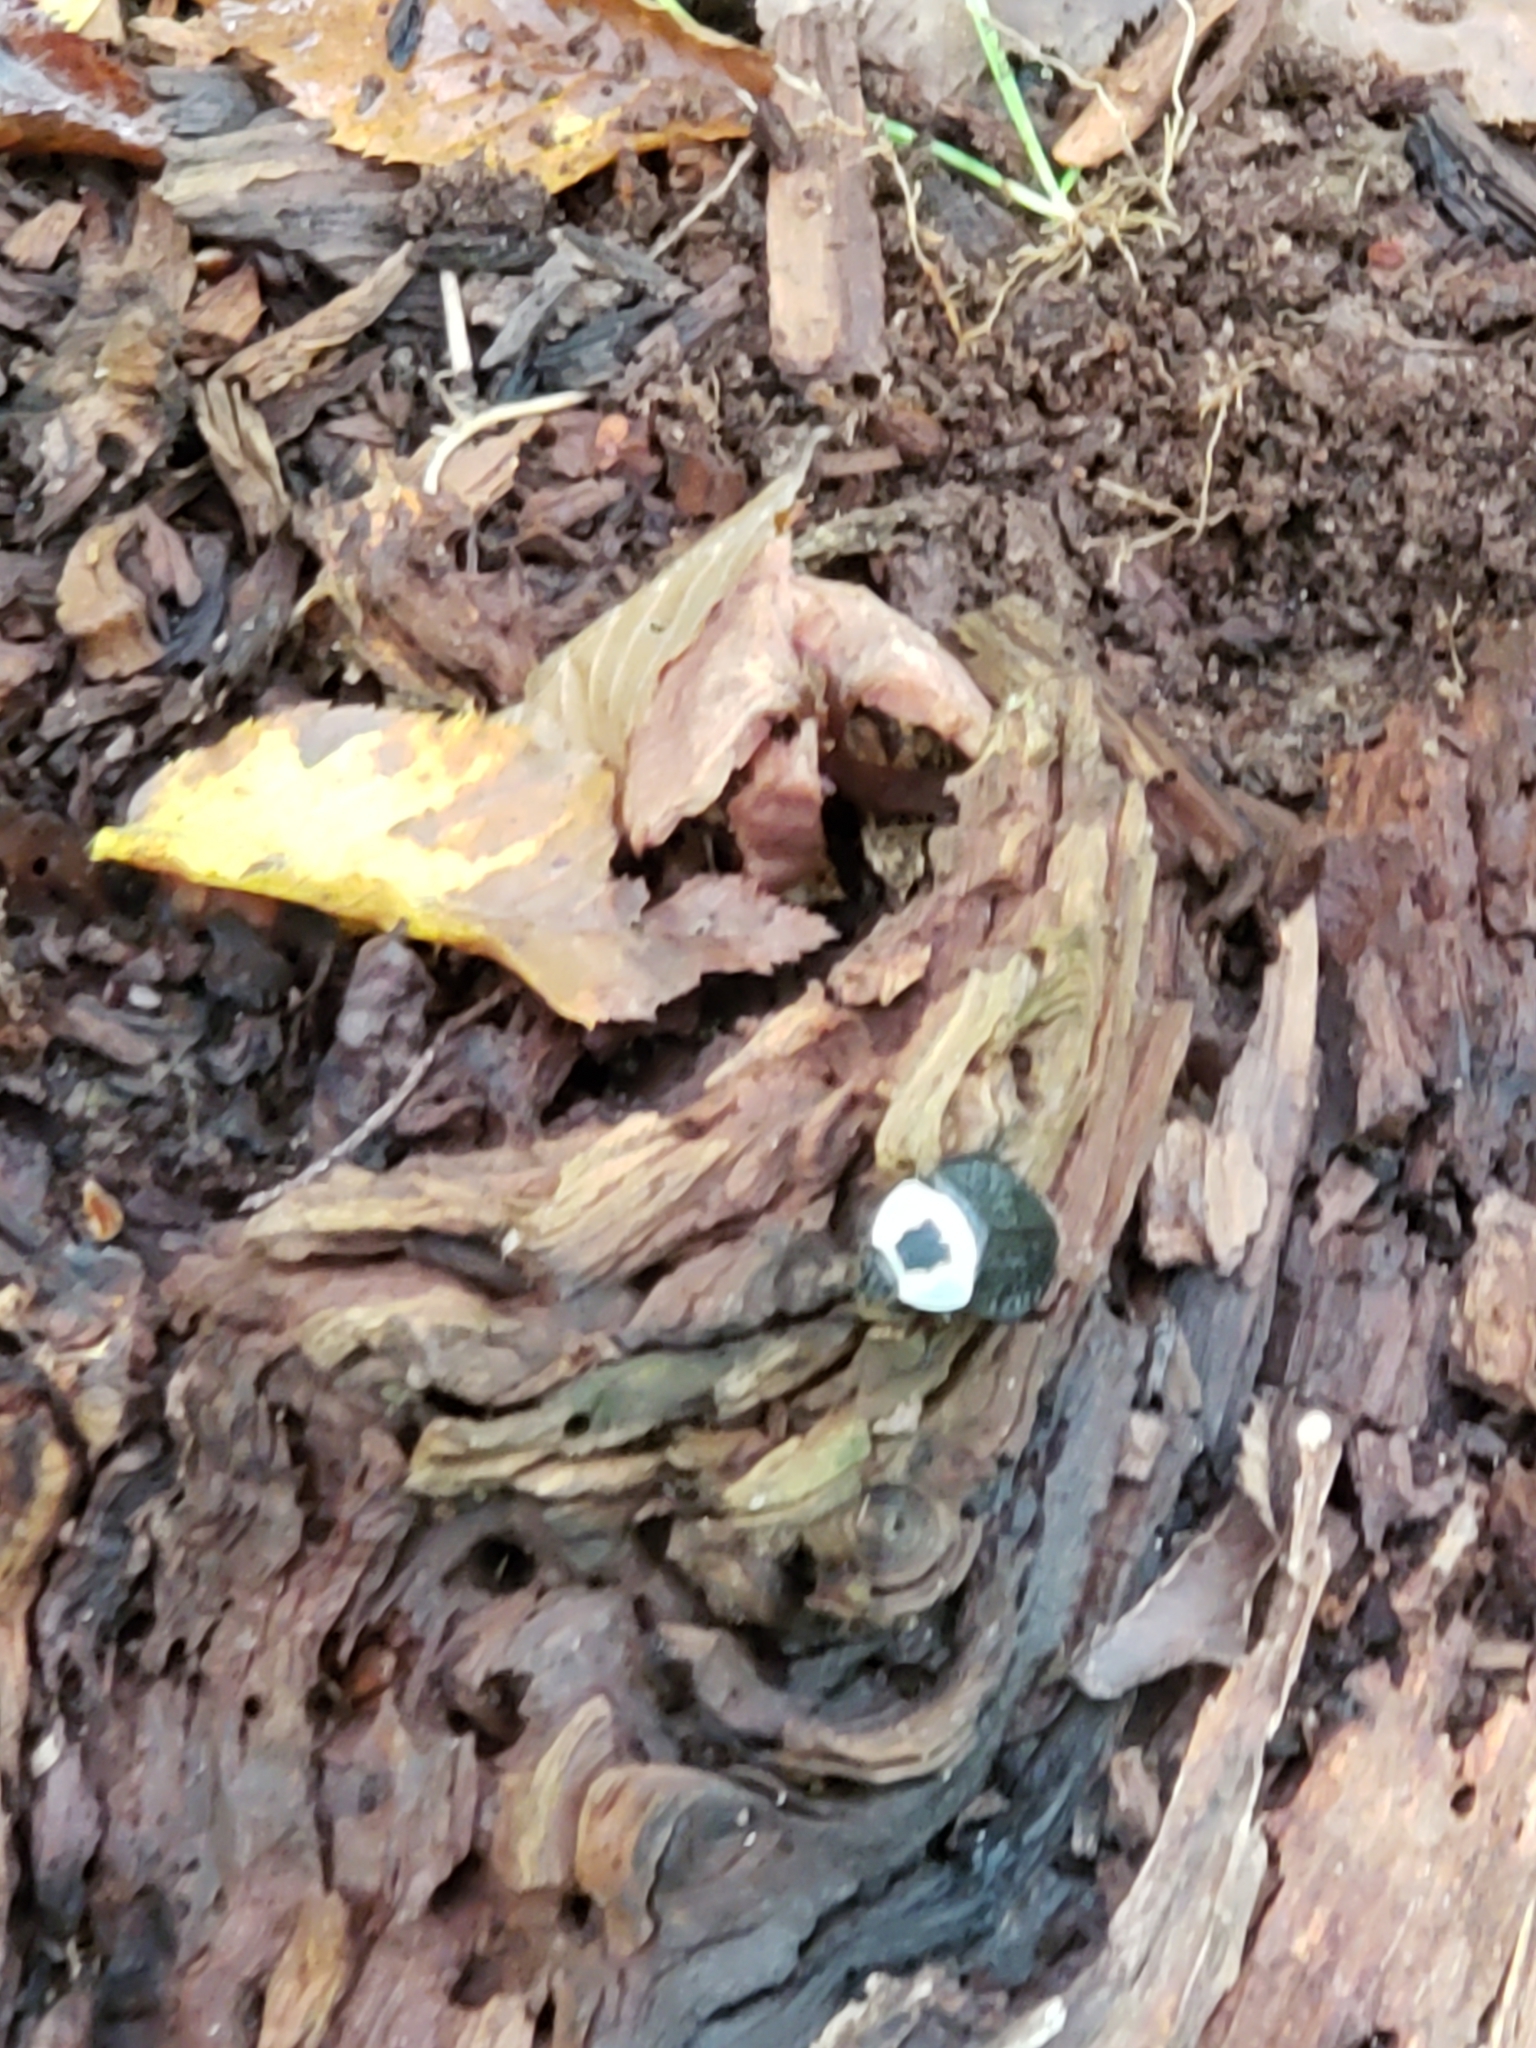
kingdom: Animalia
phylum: Arthropoda
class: Insecta
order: Coleoptera
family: Staphylinidae
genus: Necrophila
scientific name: Necrophila americana
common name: American carrion beetle
